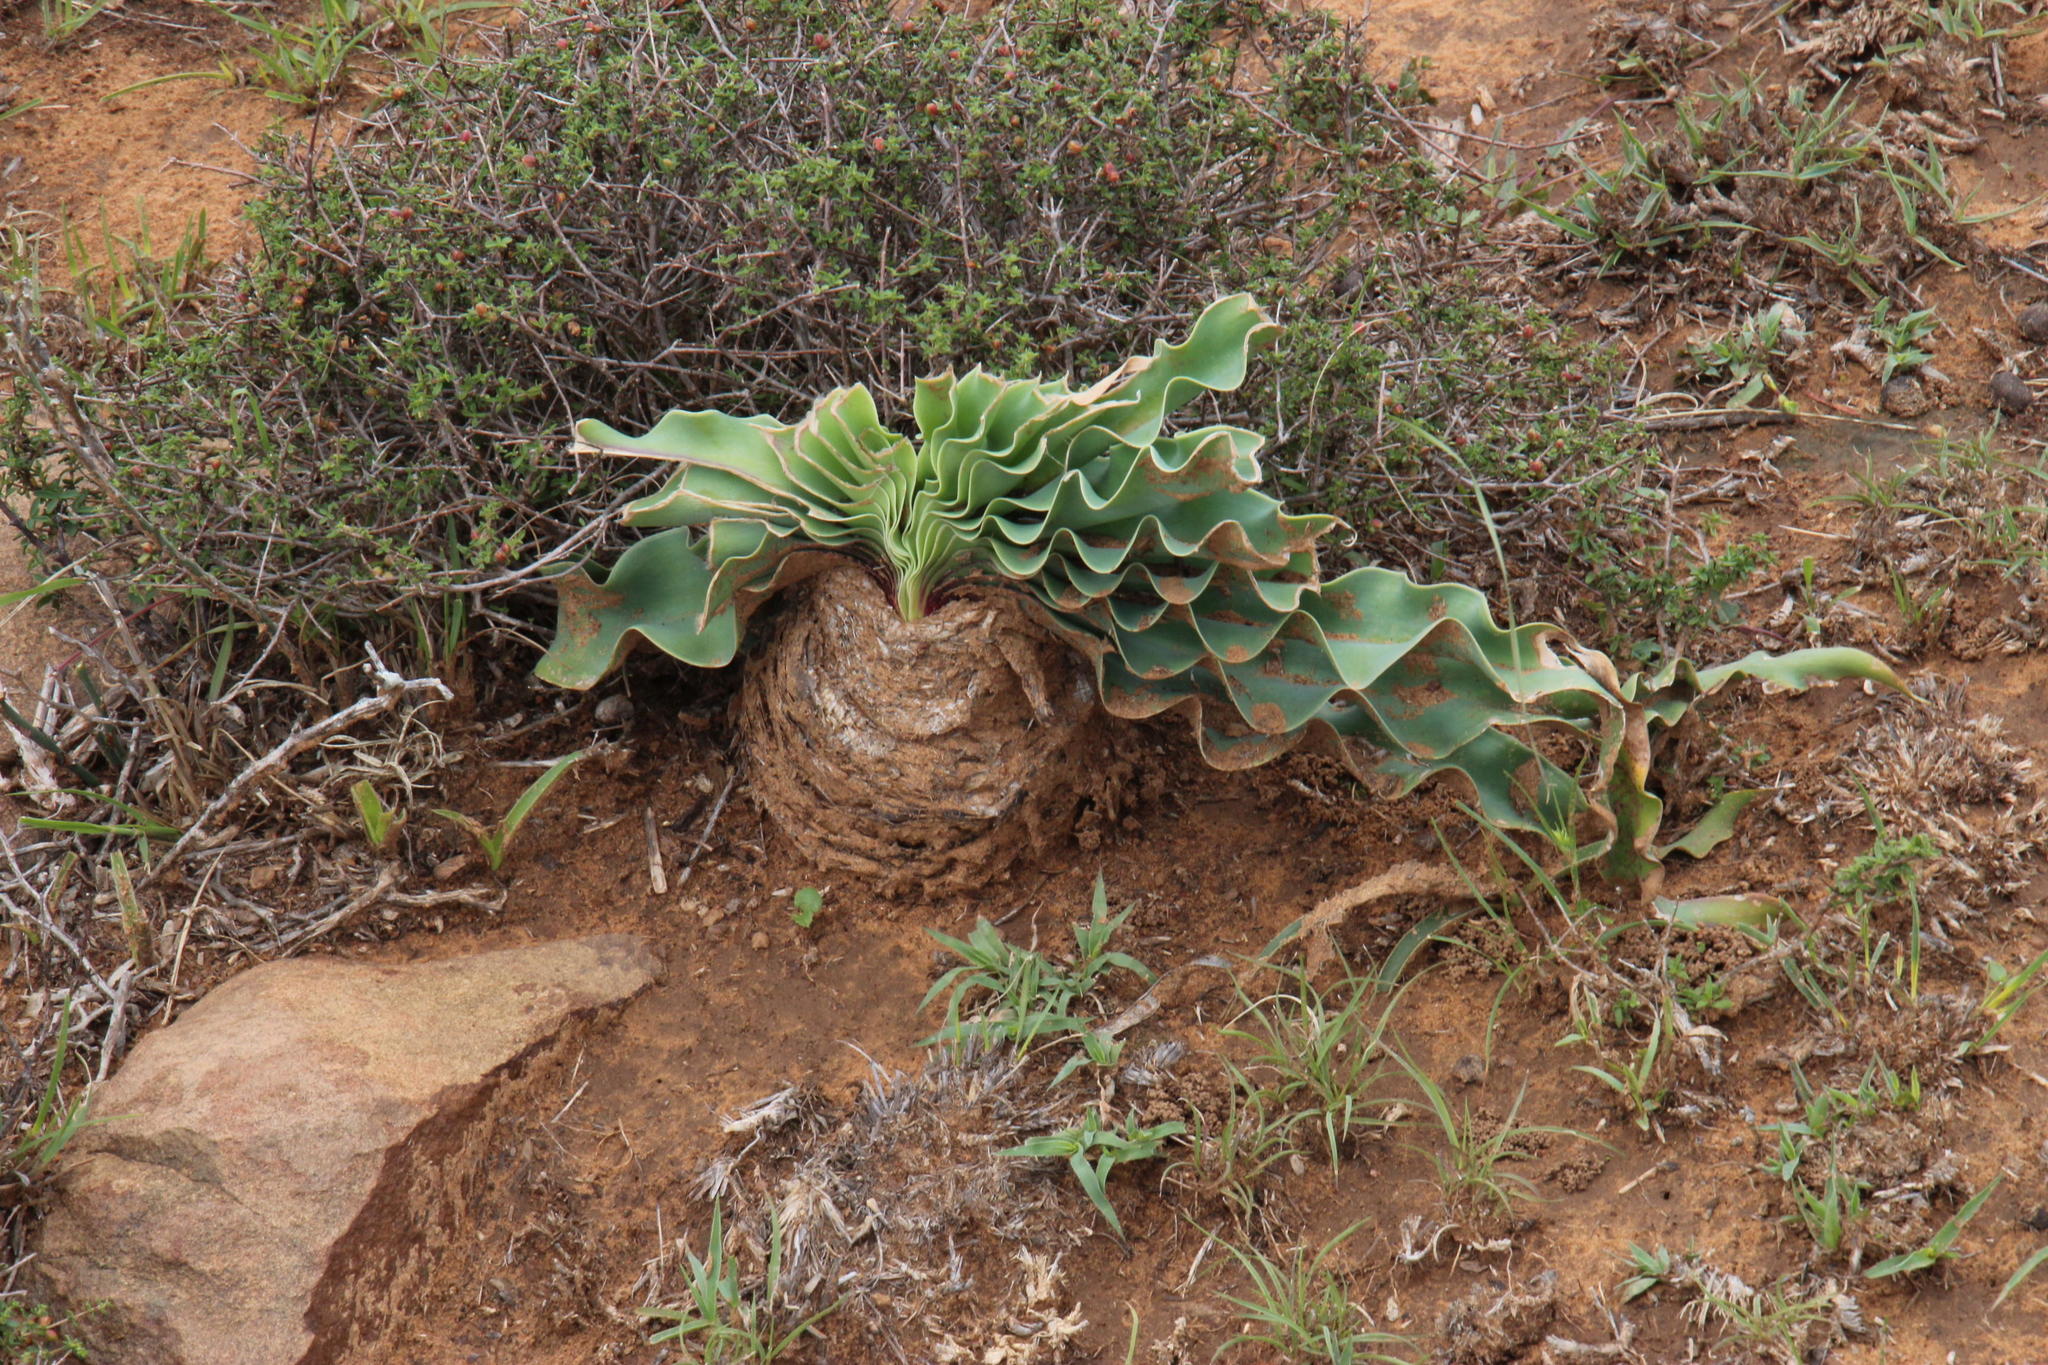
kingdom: Plantae
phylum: Tracheophyta
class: Liliopsida
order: Asparagales
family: Amaryllidaceae
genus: Boophone
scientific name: Boophone disticha
